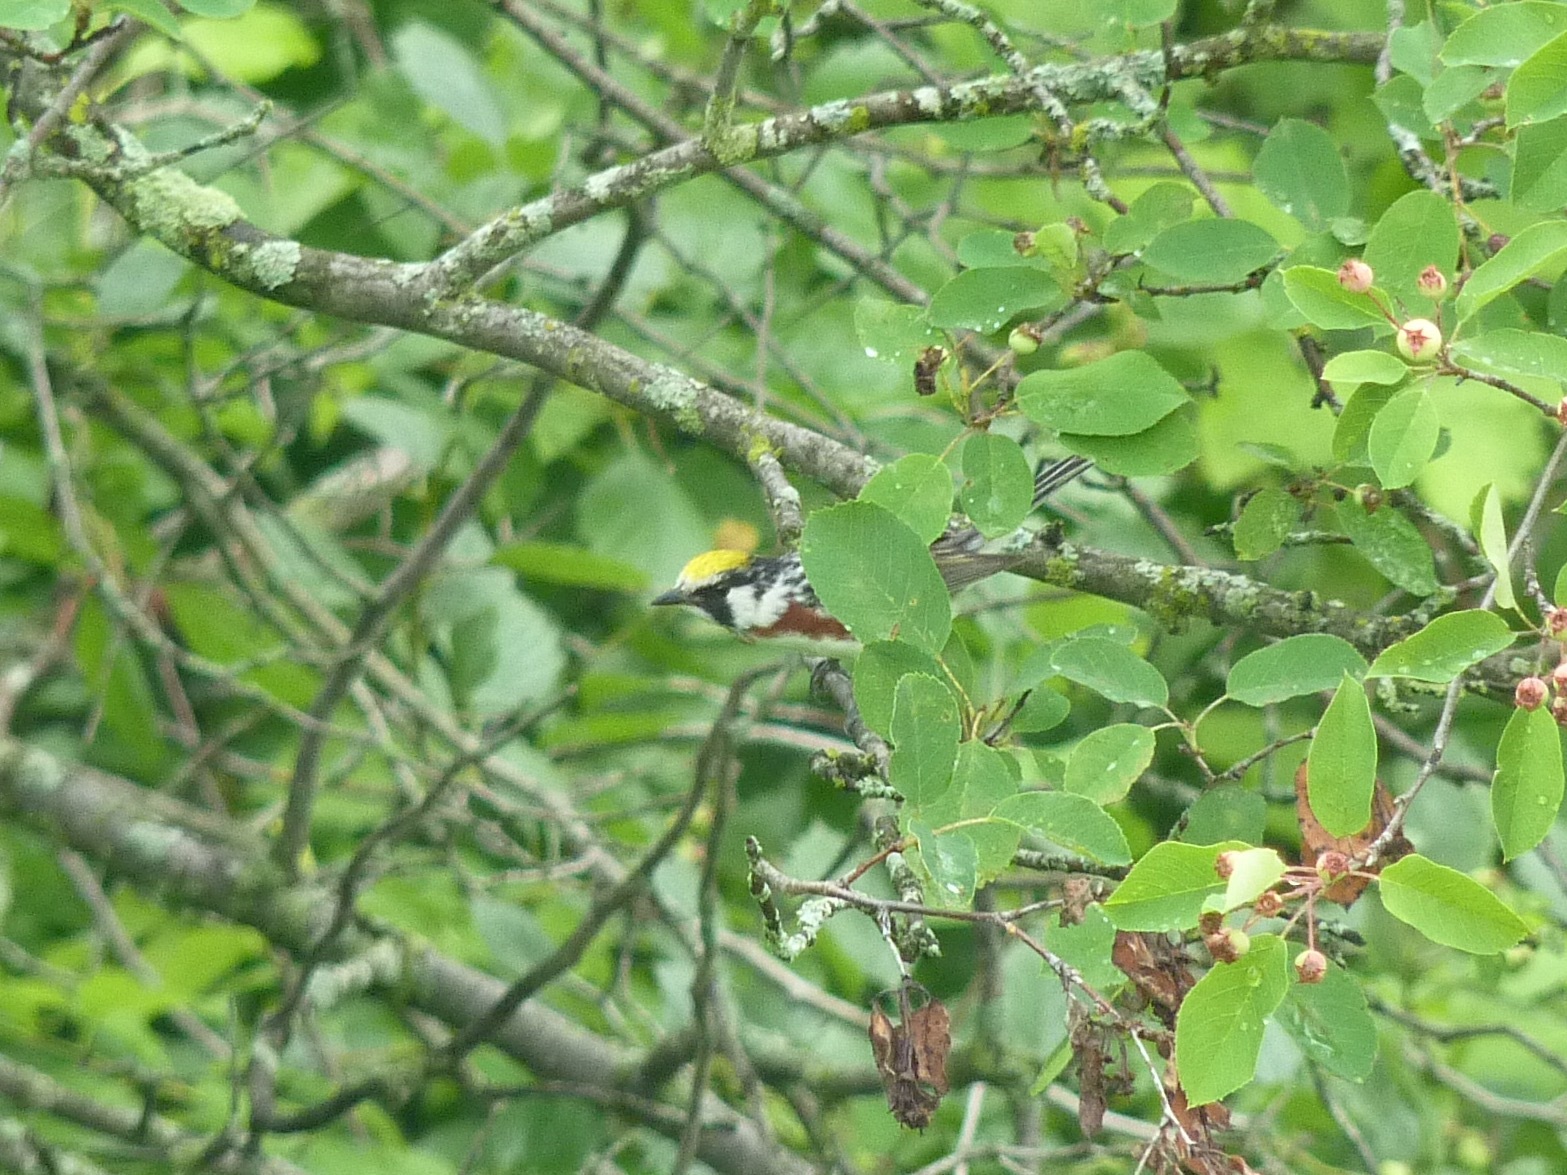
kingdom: Animalia
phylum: Chordata
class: Aves
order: Passeriformes
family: Parulidae
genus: Setophaga
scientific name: Setophaga pensylvanica
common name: Chestnut-sided warbler
